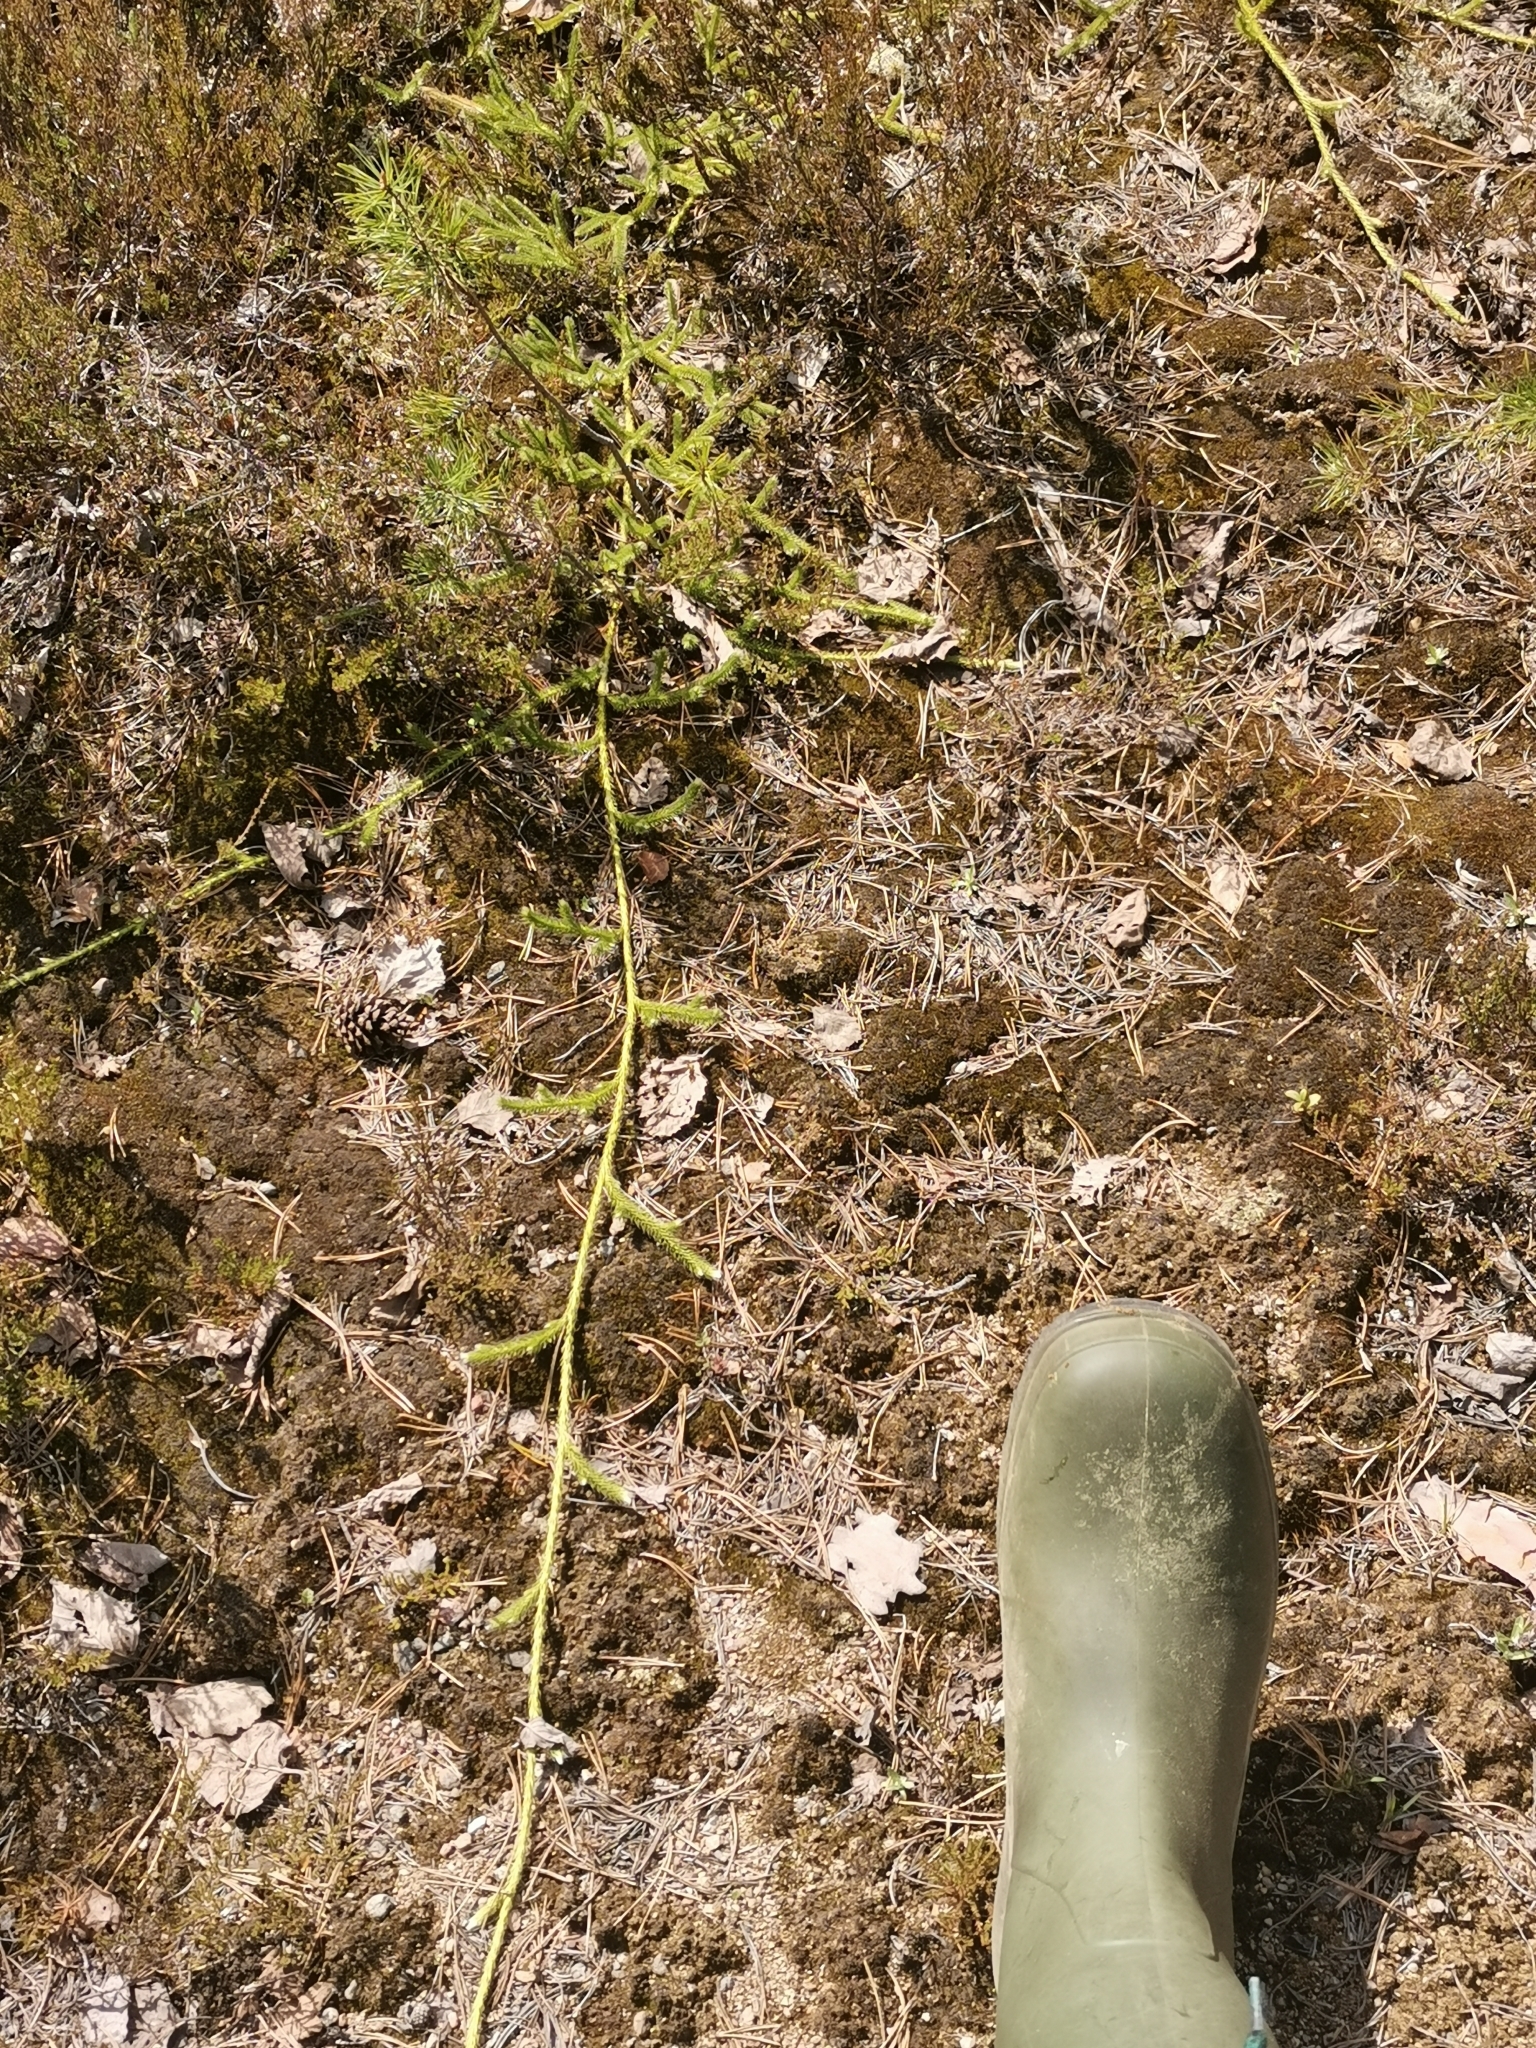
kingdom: Plantae
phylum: Tracheophyta
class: Lycopodiopsida
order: Lycopodiales
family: Lycopodiaceae
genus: Lycopodium
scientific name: Lycopodium clavatum
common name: Stag's-horn clubmoss
